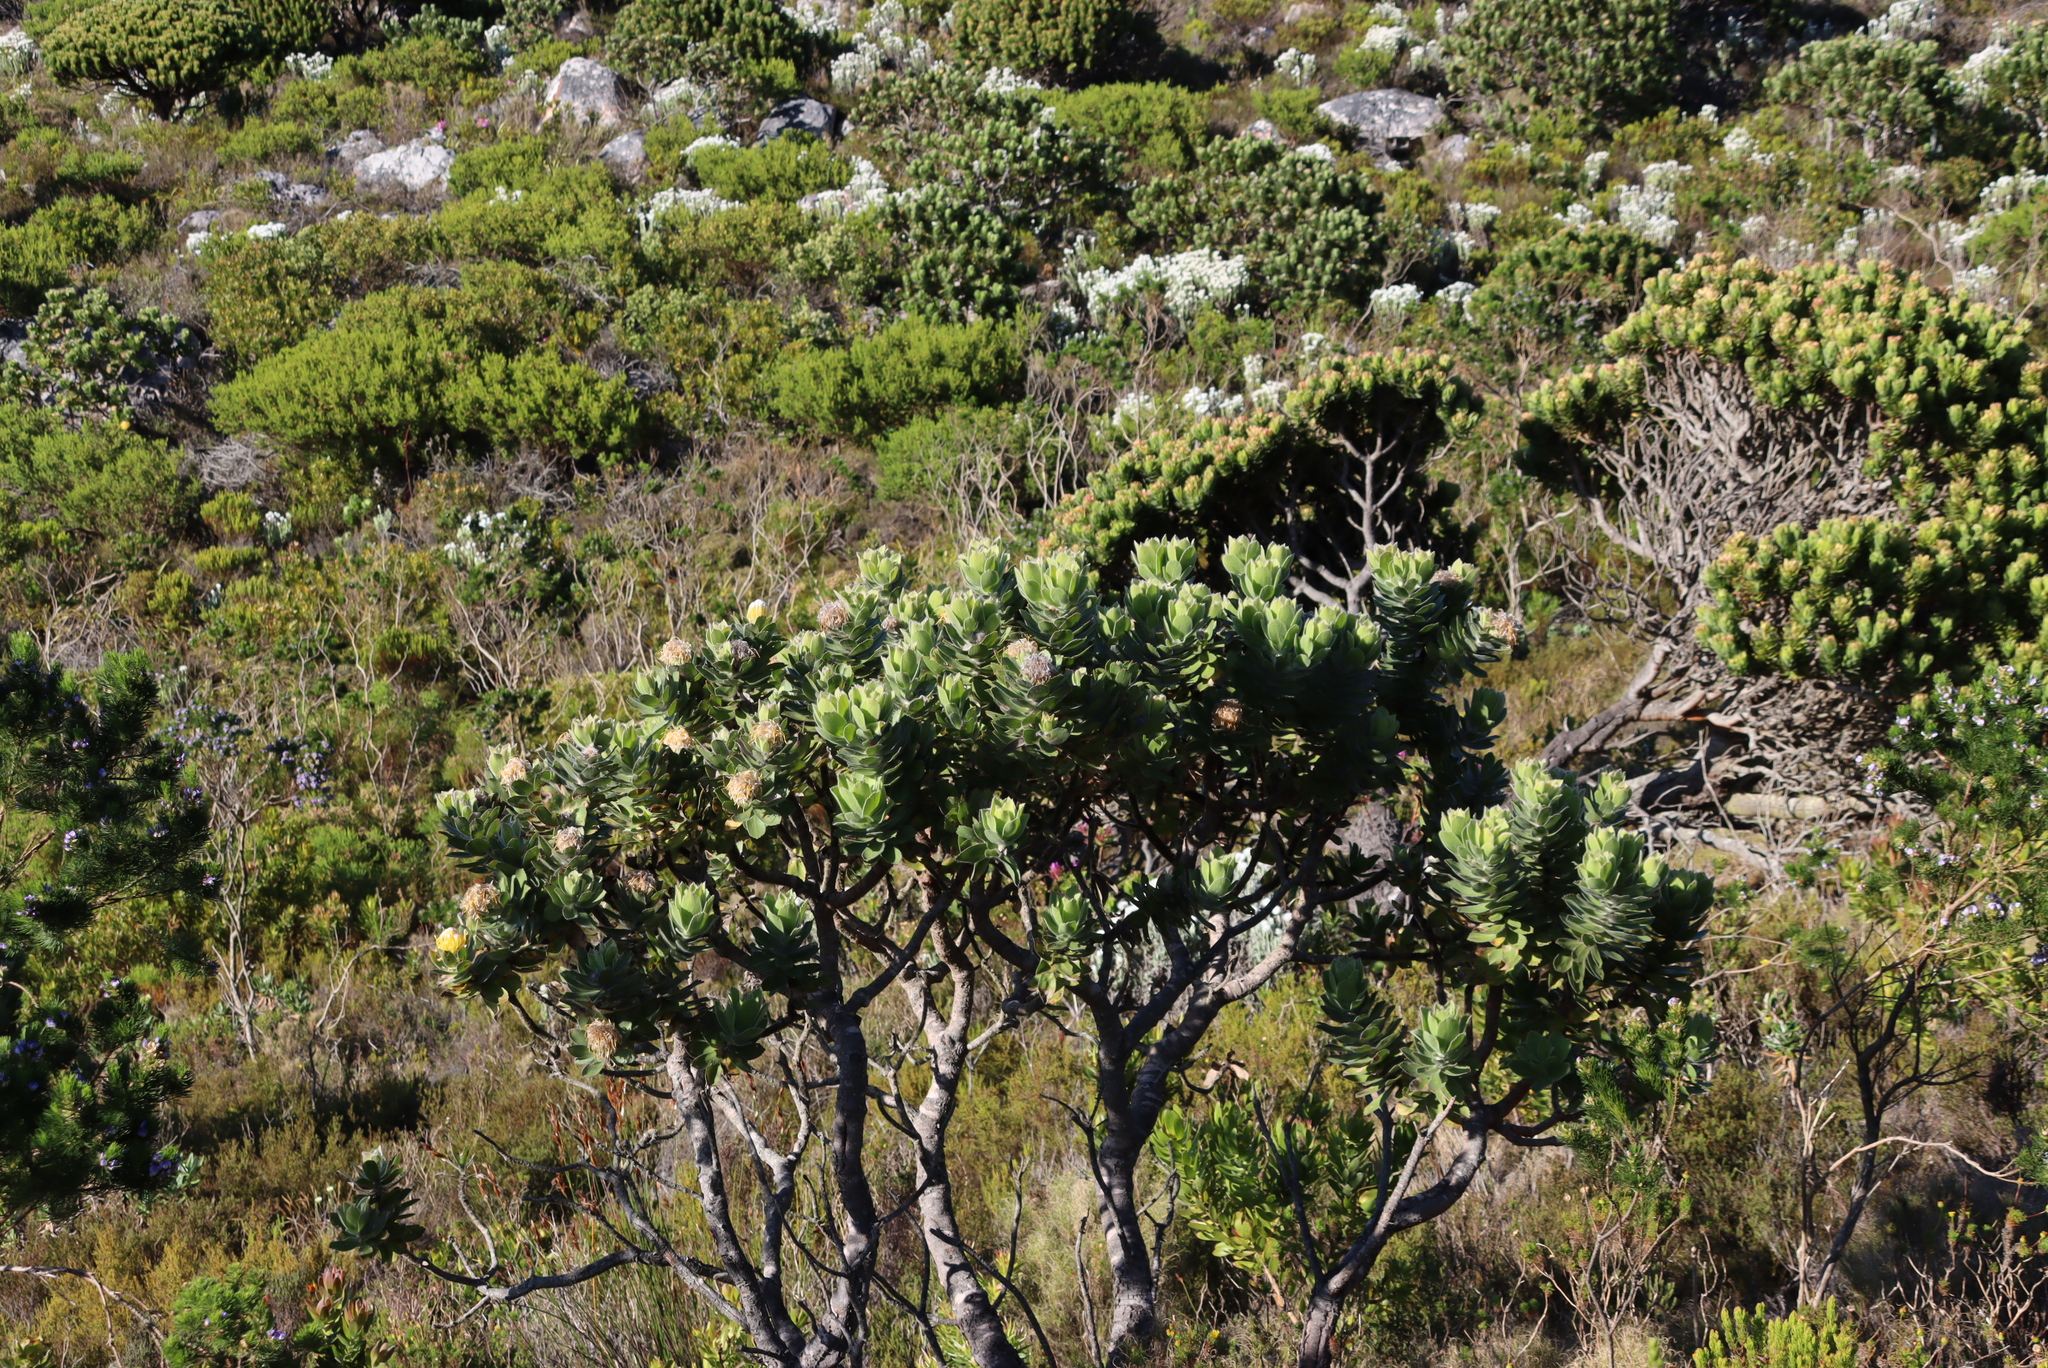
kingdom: Plantae
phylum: Tracheophyta
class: Magnoliopsida
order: Proteales
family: Proteaceae
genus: Leucospermum
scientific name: Leucospermum conocarpodendron
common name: Tree pincushion
